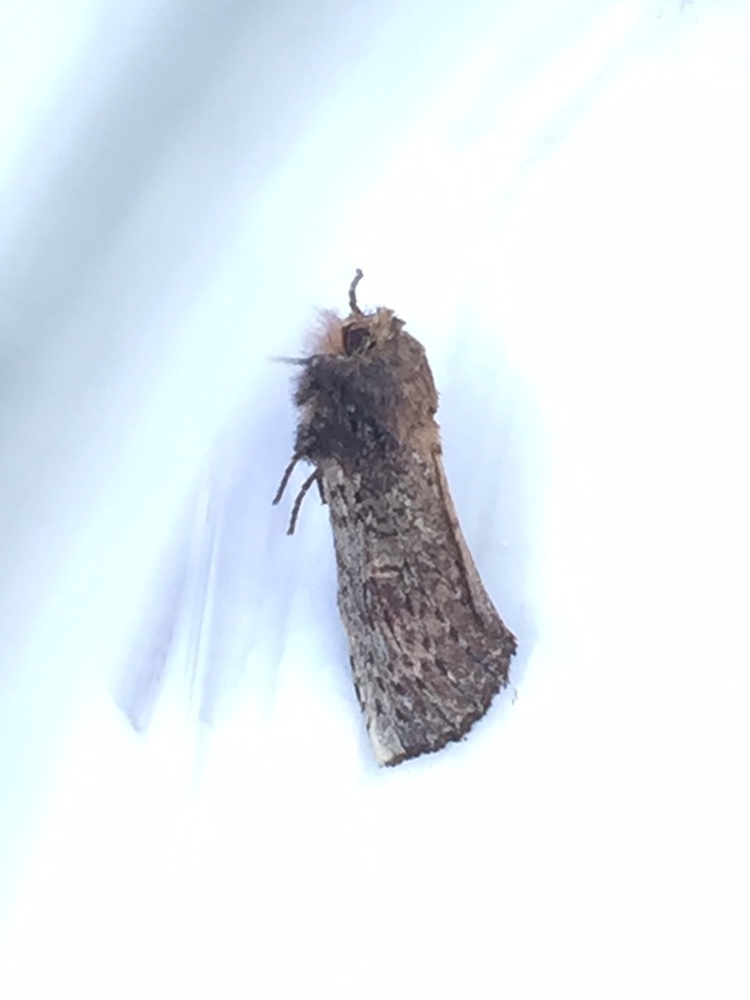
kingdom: Animalia
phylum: Arthropoda
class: Insecta
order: Lepidoptera
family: Notodontidae
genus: Schizura
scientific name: Schizura ipomaeae
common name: Morning-glory prominent
